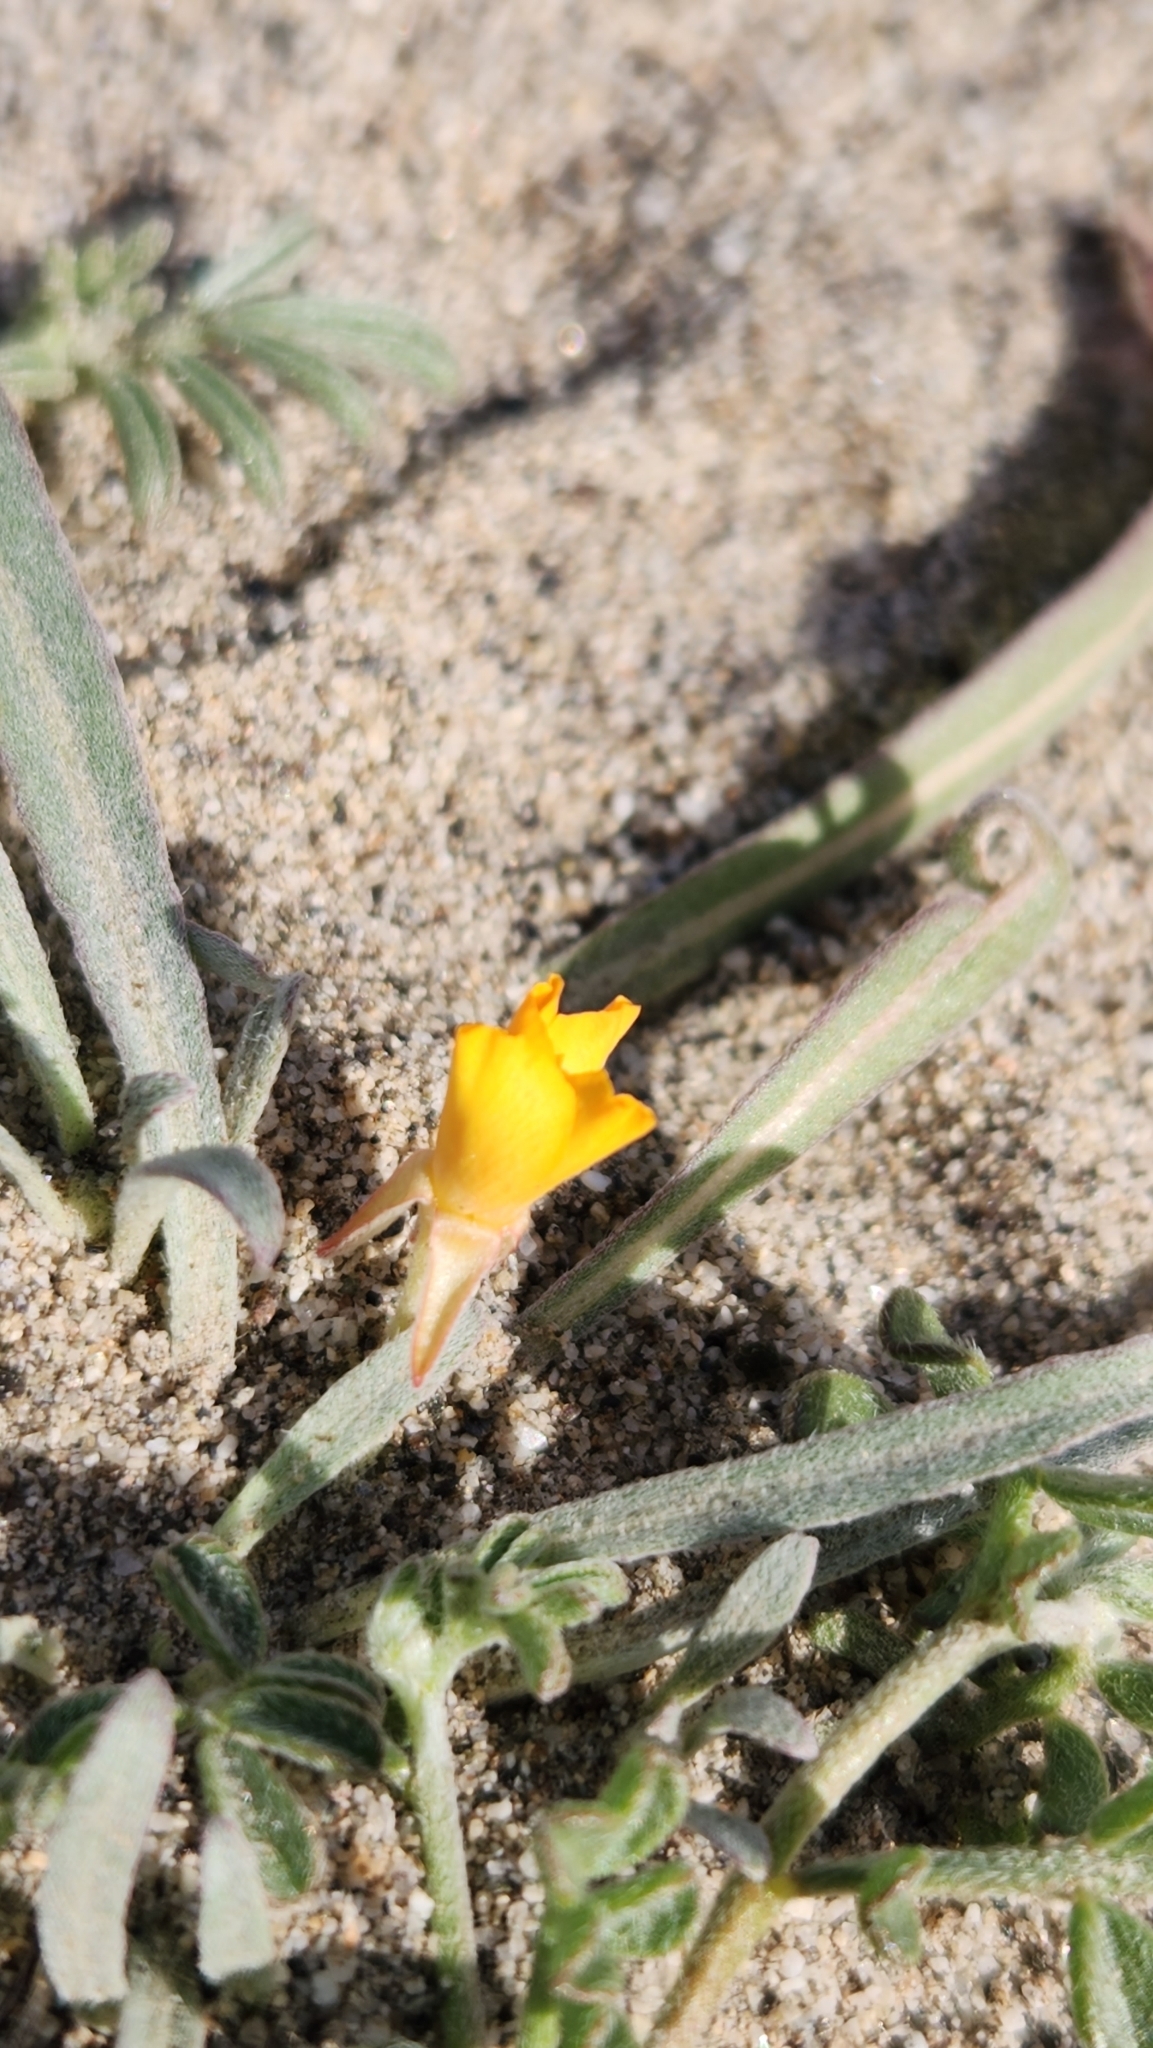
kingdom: Plantae
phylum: Tracheophyta
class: Magnoliopsida
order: Myrtales
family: Onagraceae
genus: Camissoniopsis
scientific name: Camissoniopsis pallida
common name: Paleyellow suncup
